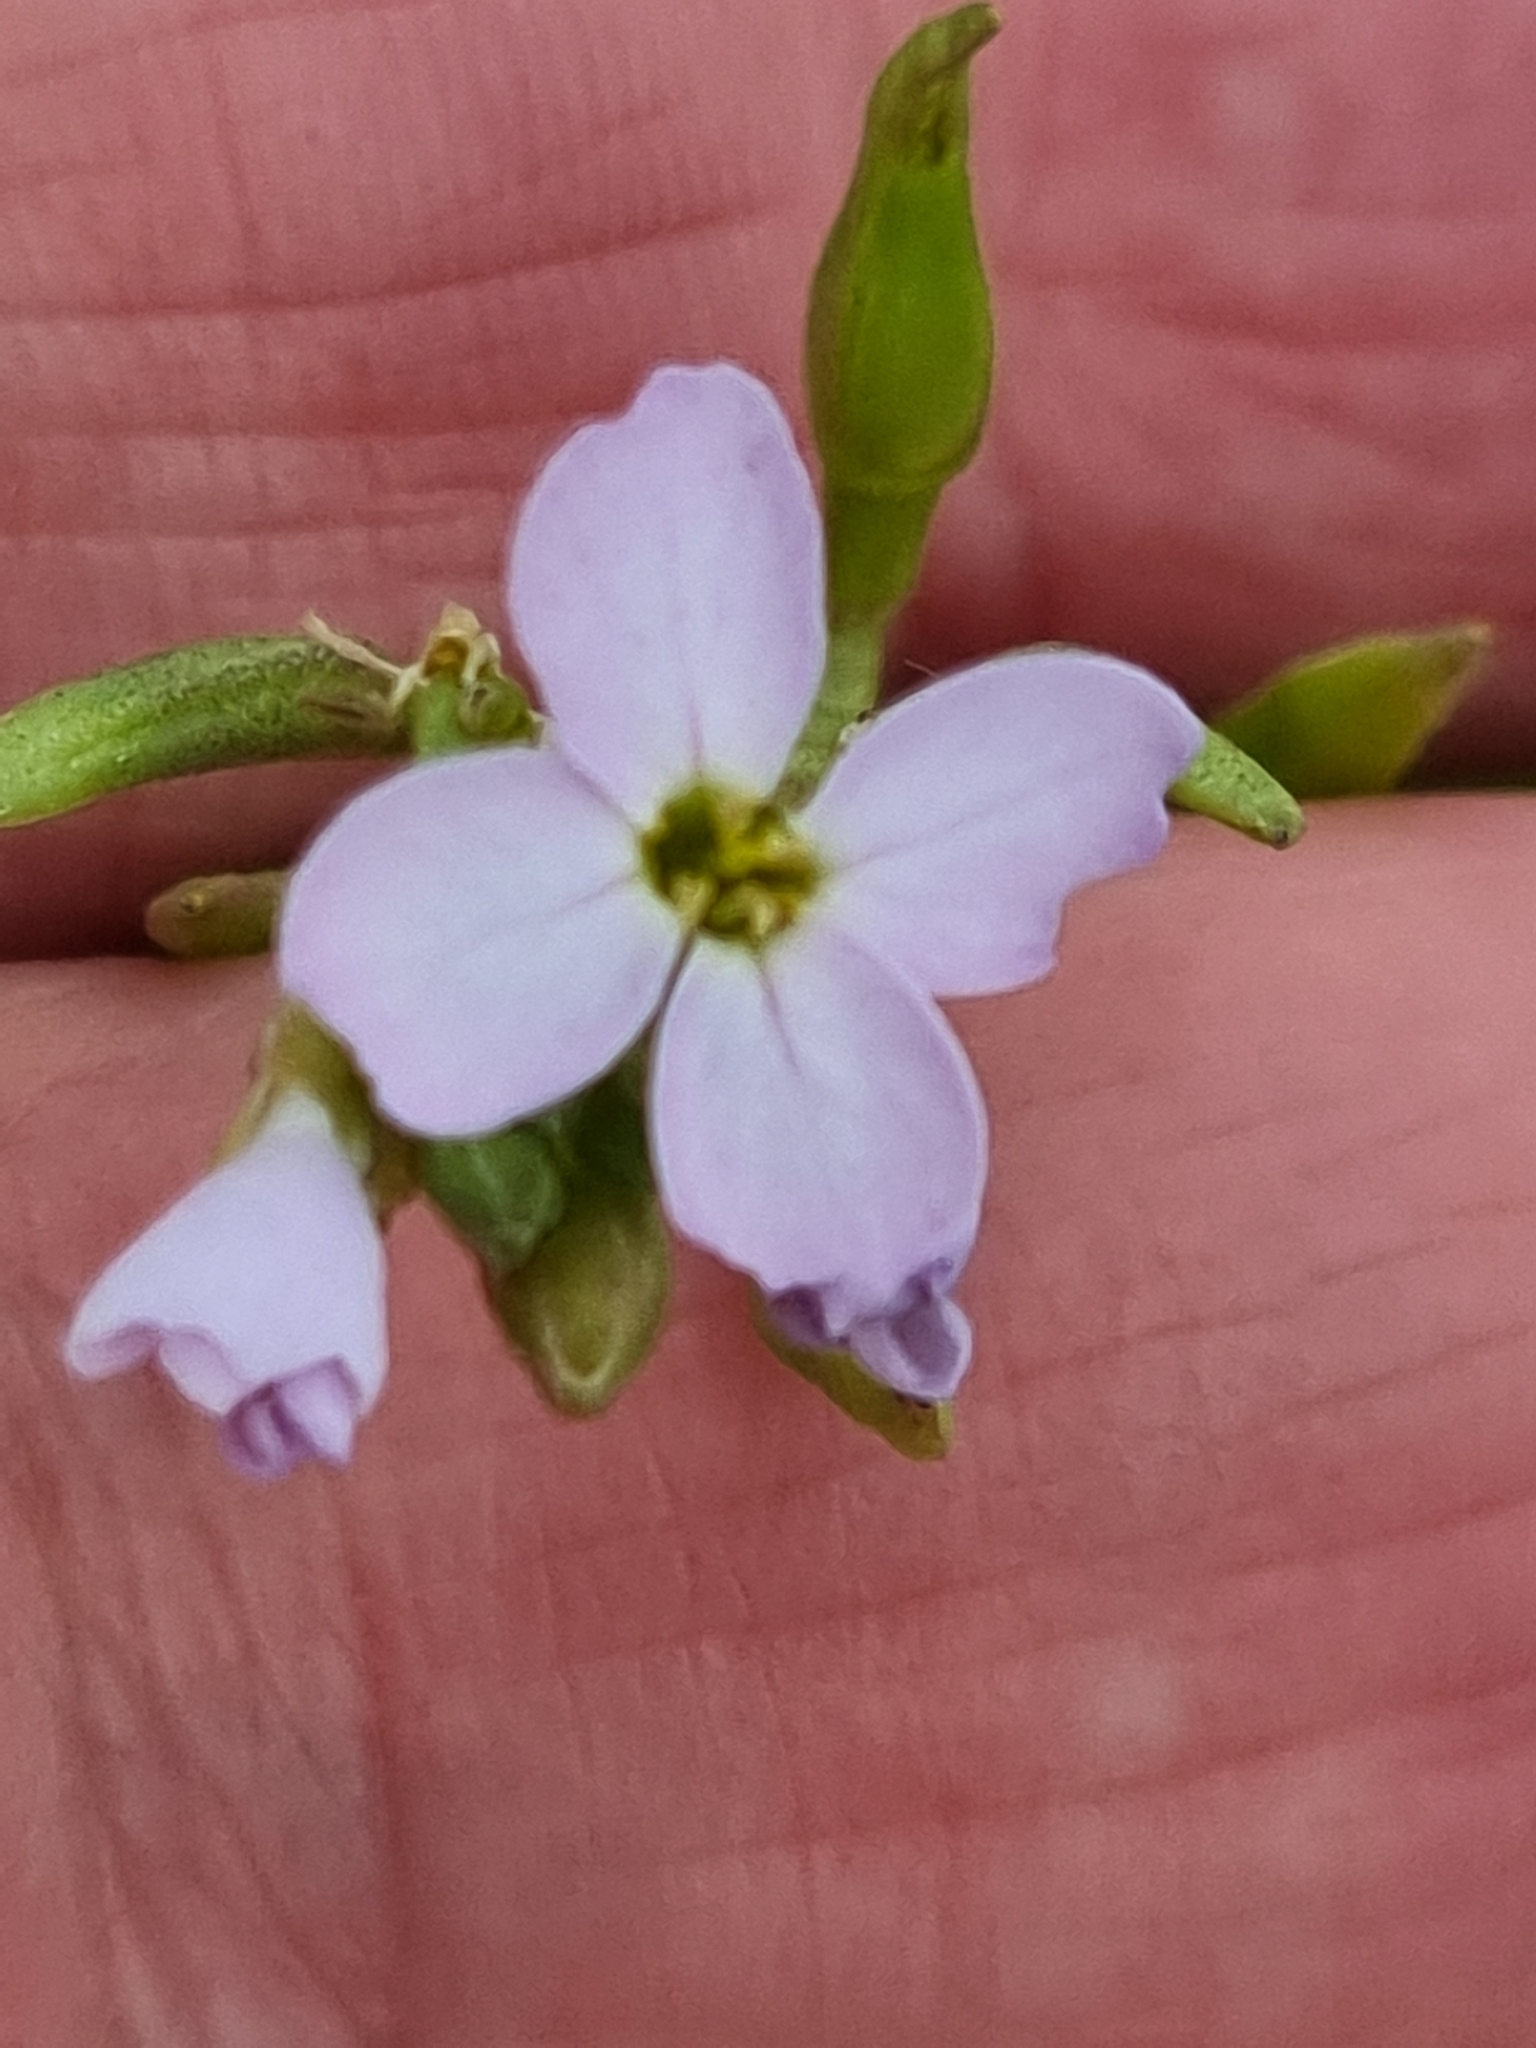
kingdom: Plantae
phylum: Tracheophyta
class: Magnoliopsida
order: Brassicales
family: Brassicaceae
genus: Cakile
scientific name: Cakile maritima
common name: Sea rocket
